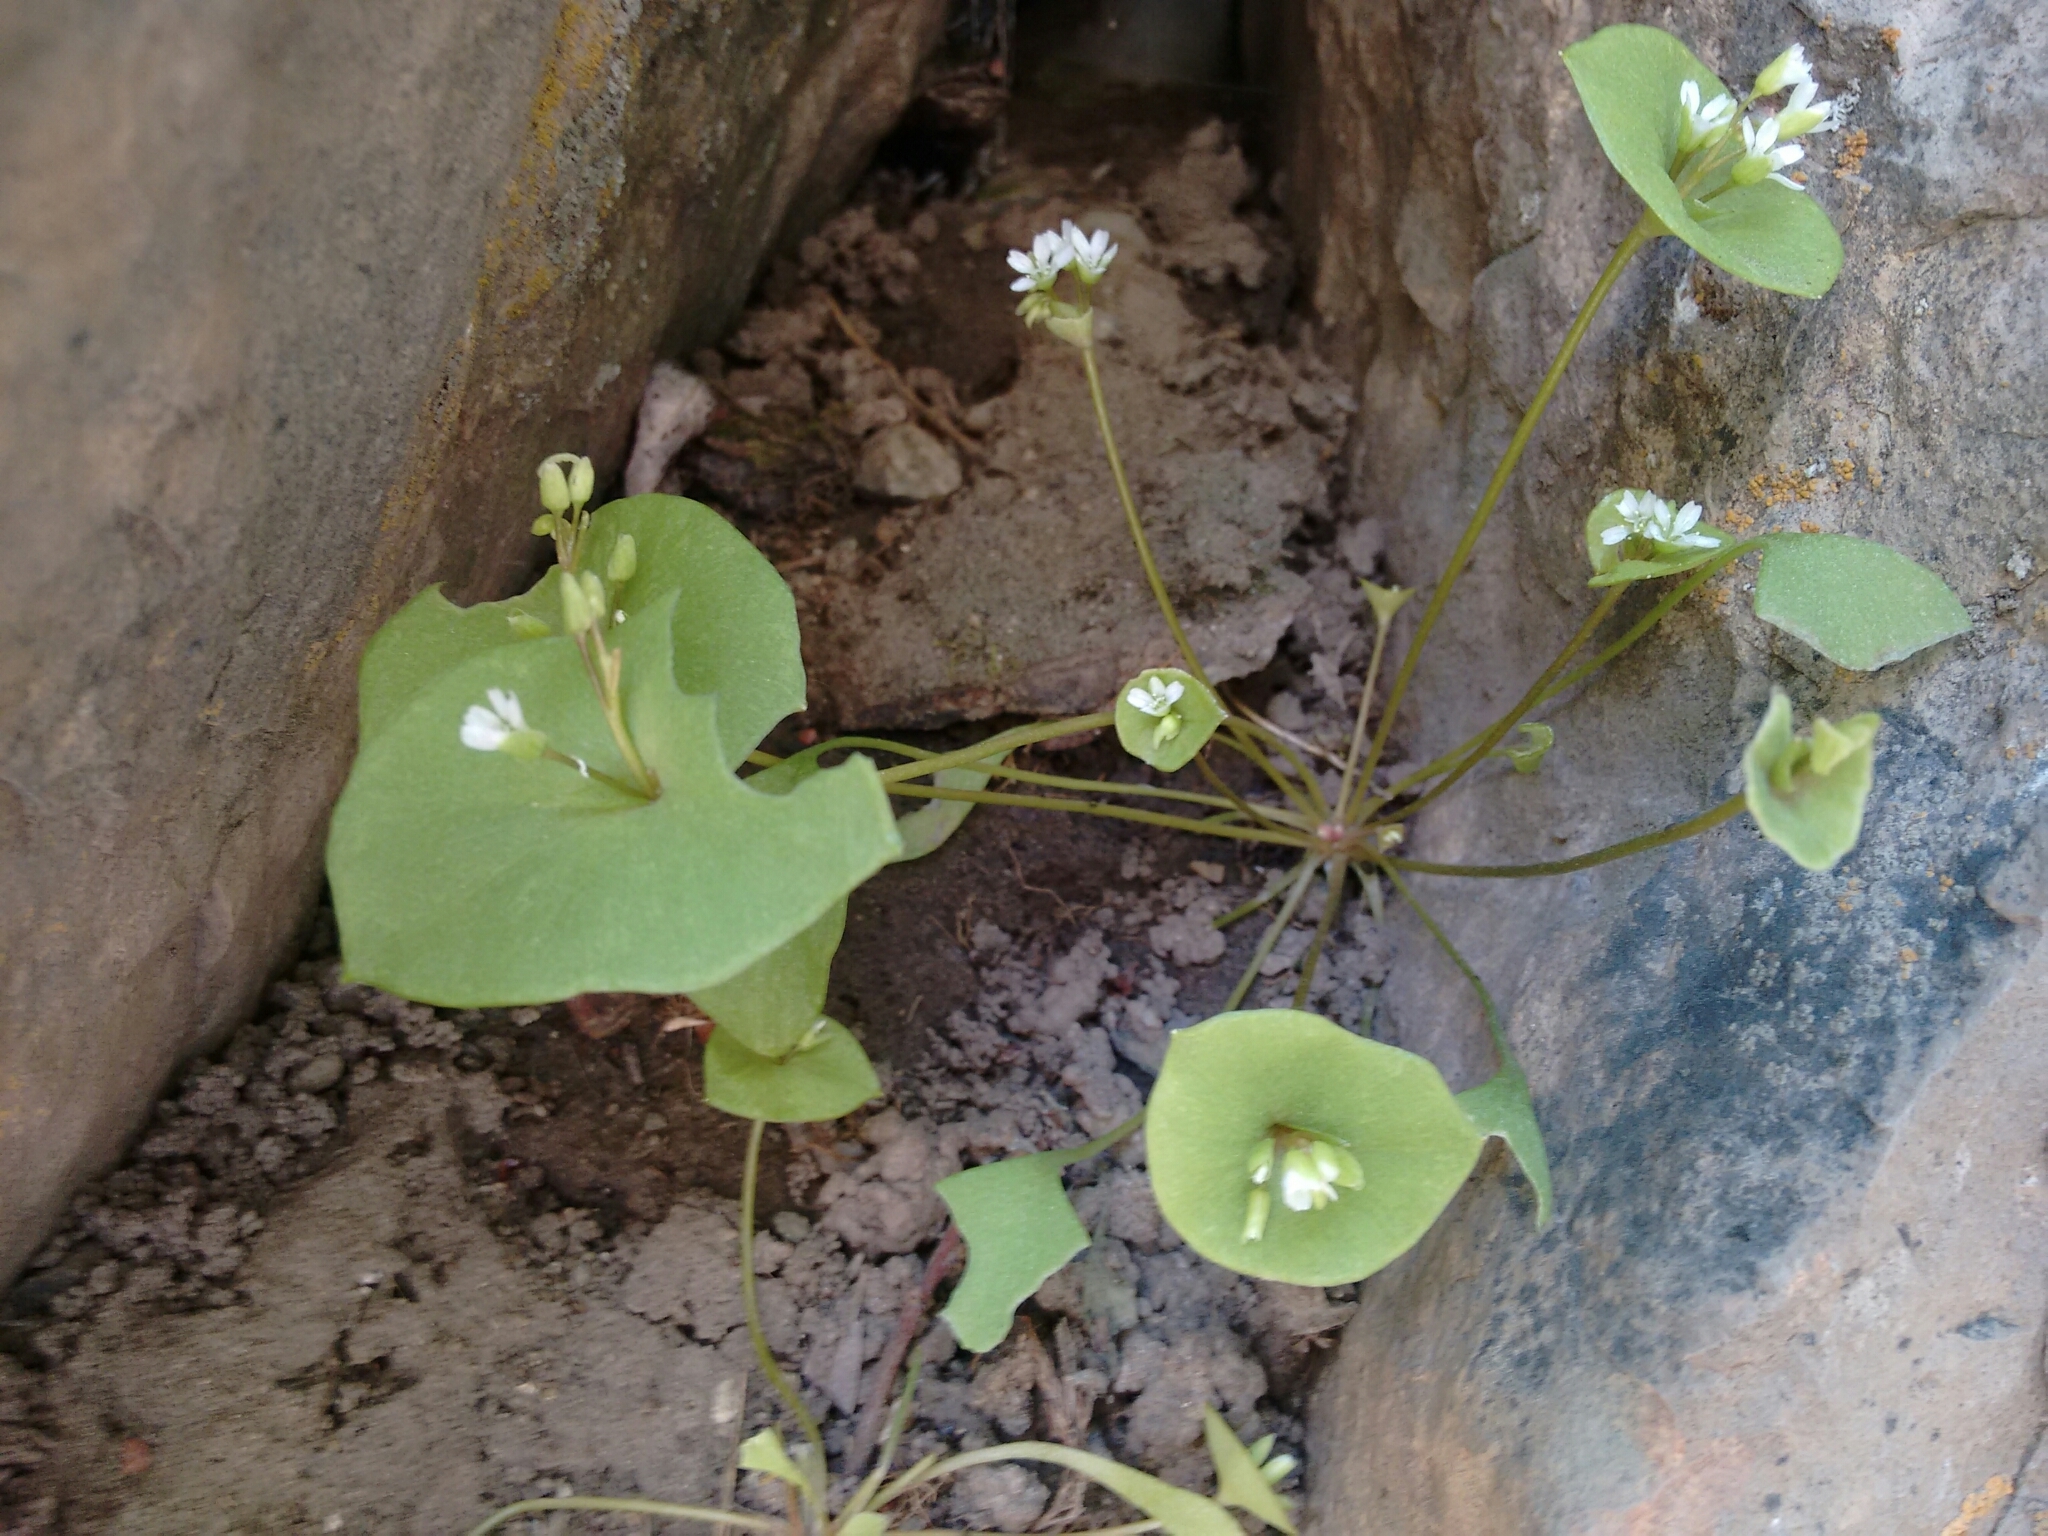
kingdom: Plantae
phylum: Tracheophyta
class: Magnoliopsida
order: Caryophyllales
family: Montiaceae
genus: Claytonia
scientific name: Claytonia perfoliata
